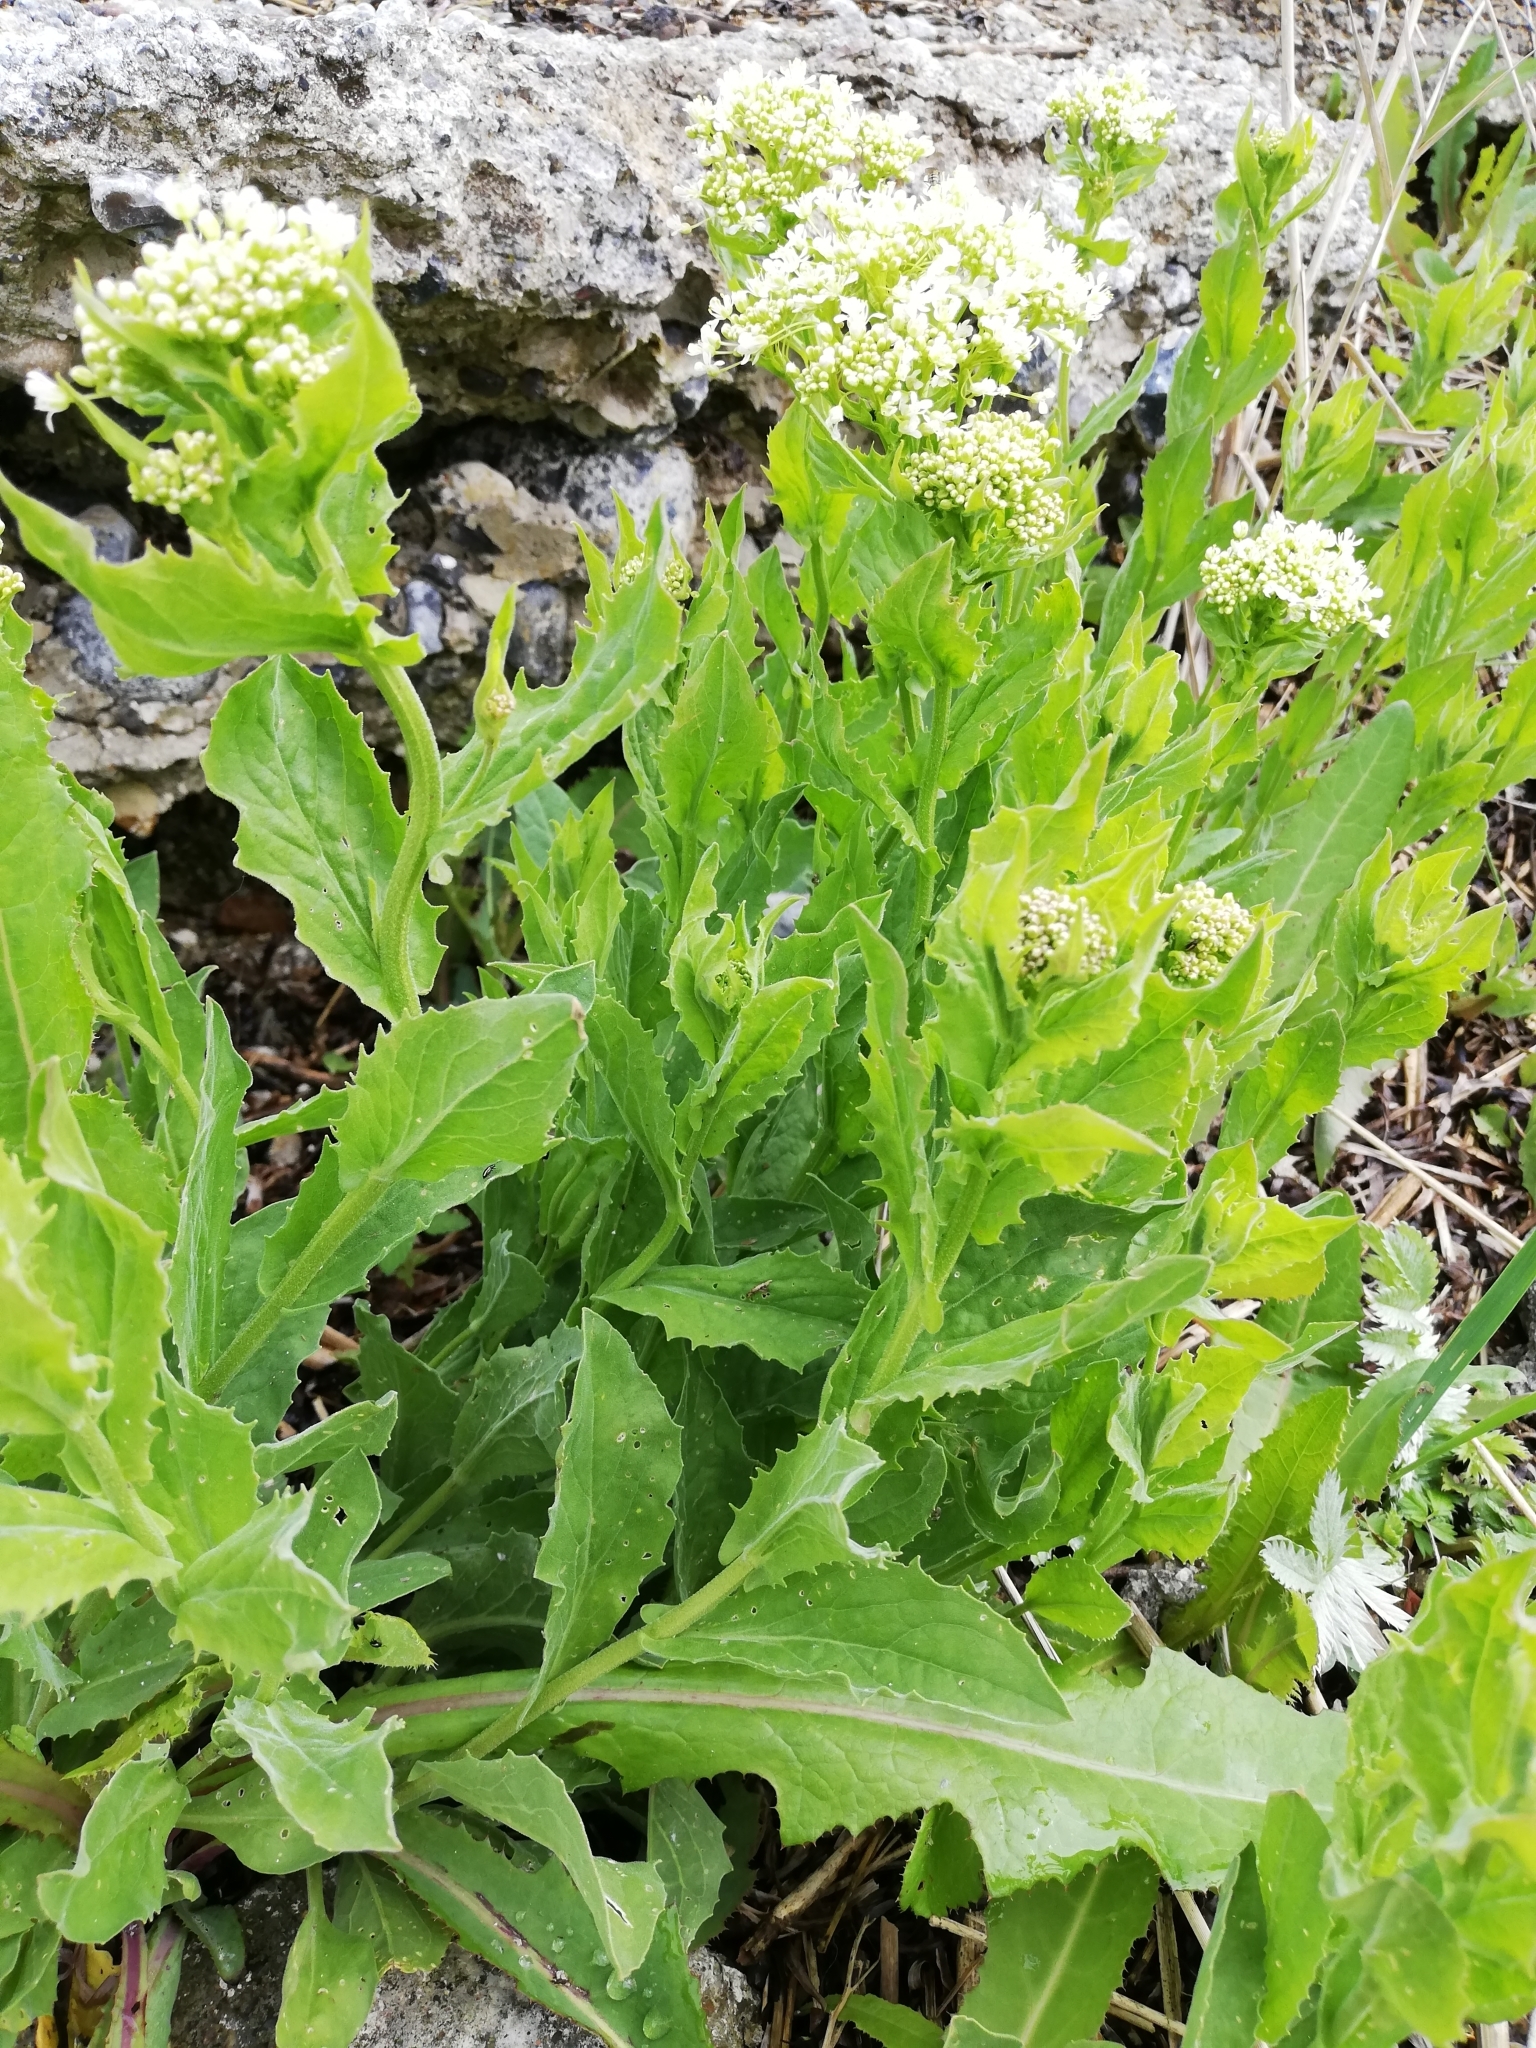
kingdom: Plantae
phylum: Tracheophyta
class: Magnoliopsida
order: Brassicales
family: Brassicaceae
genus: Lepidium
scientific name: Lepidium draba
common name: Hoary cress
